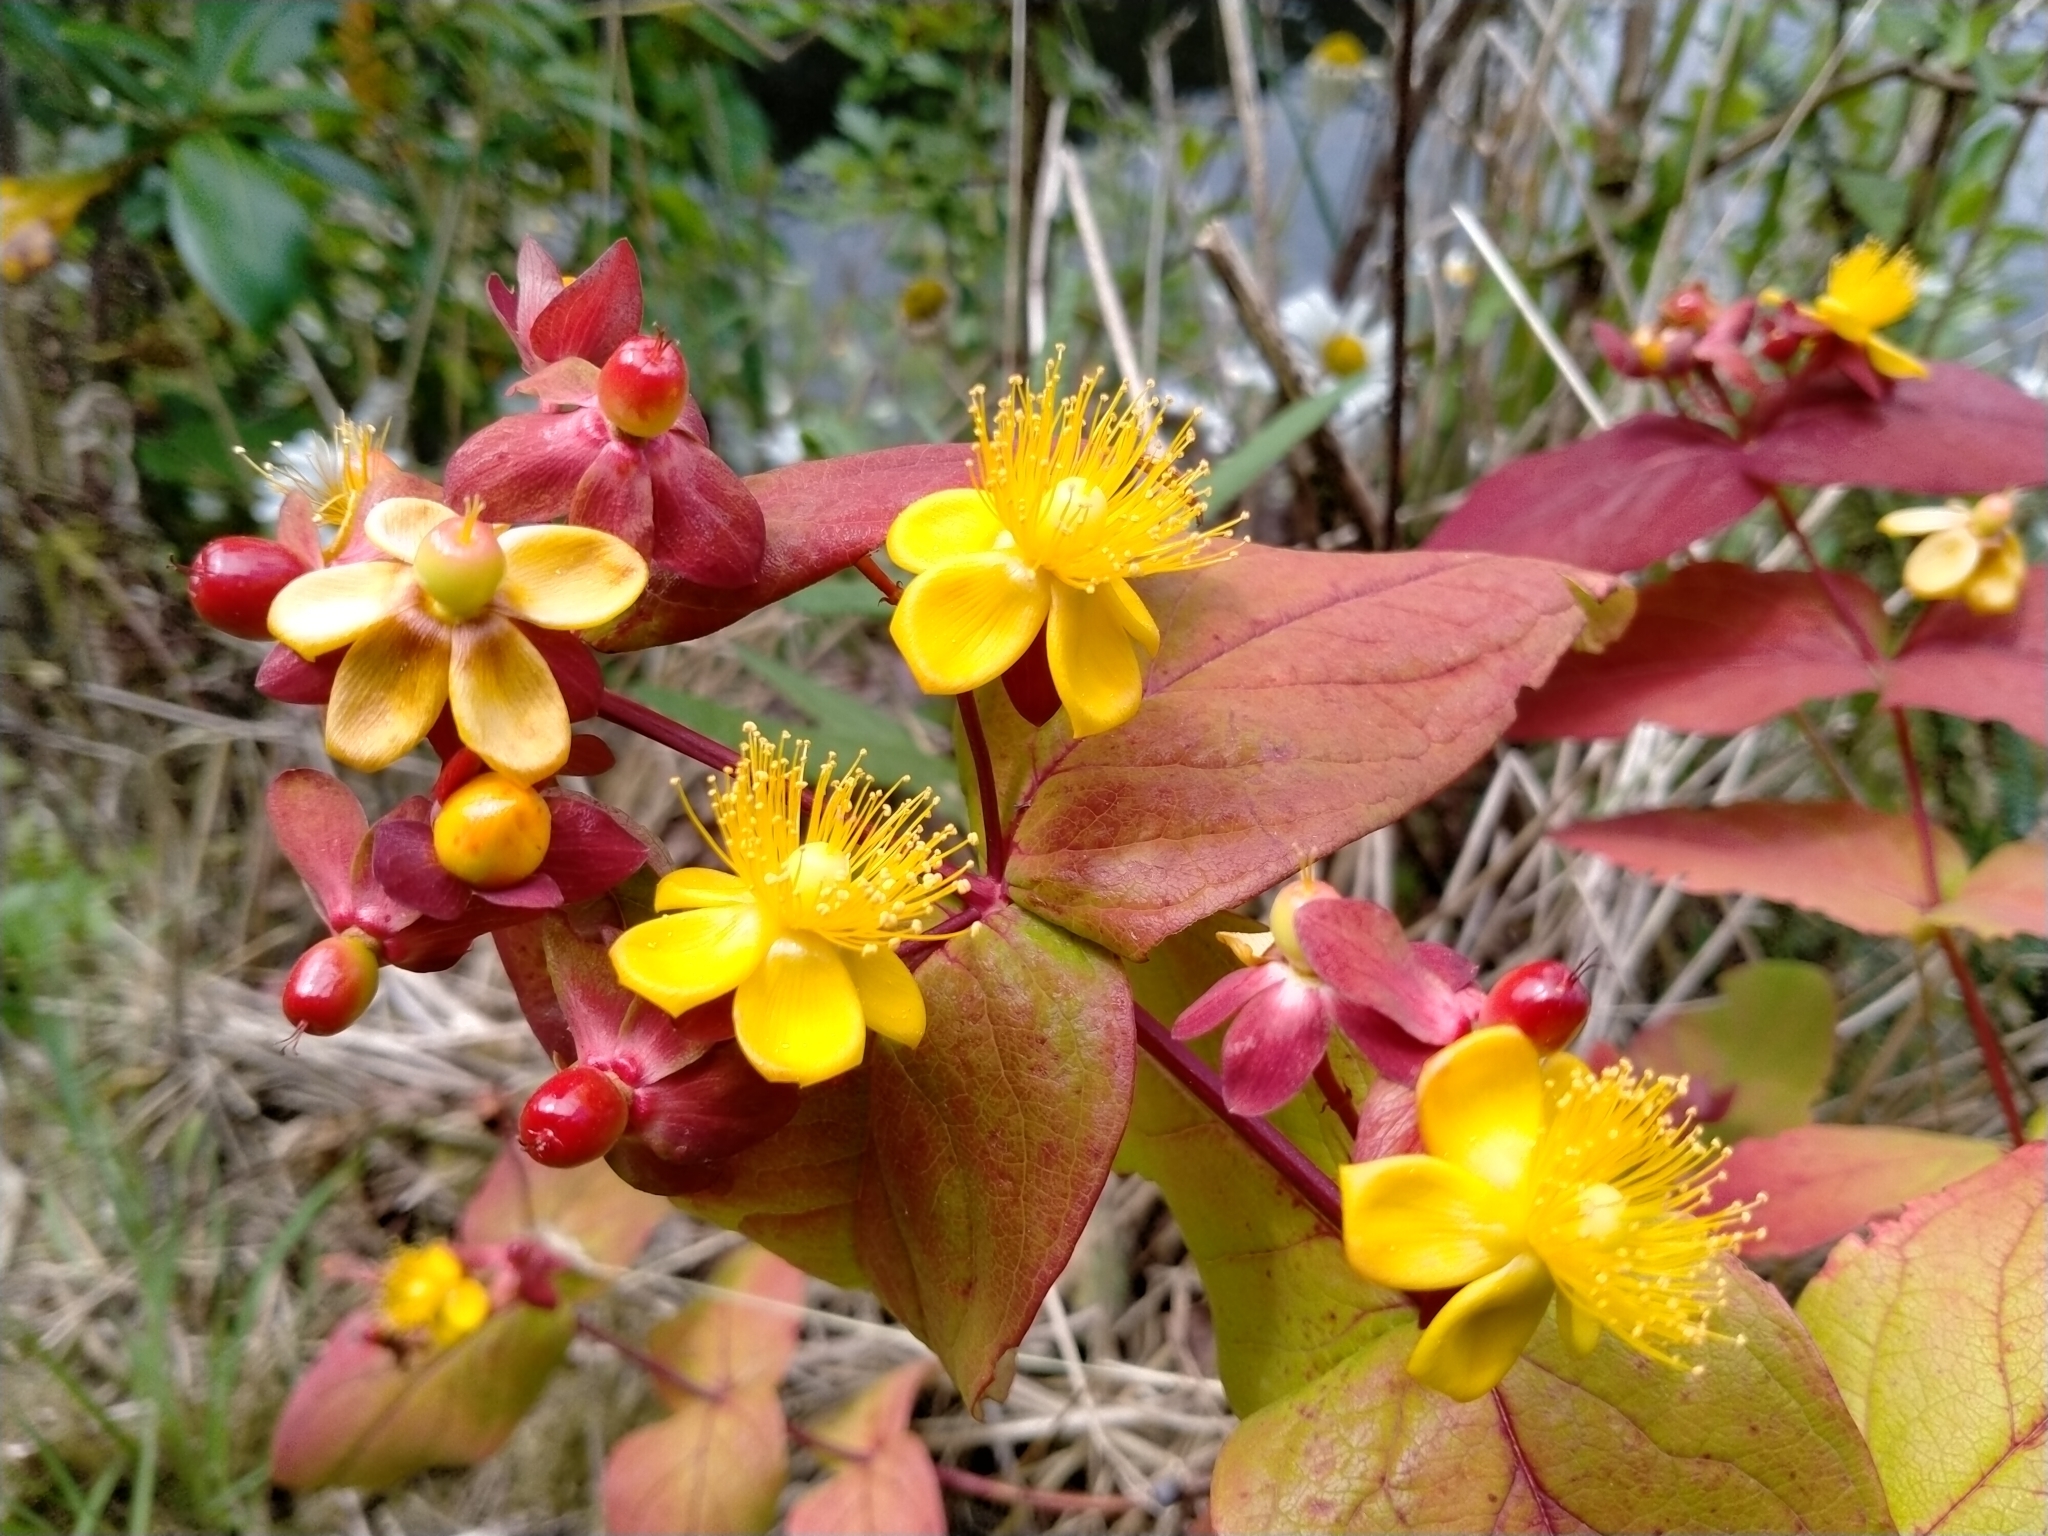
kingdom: Plantae
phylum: Tracheophyta
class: Magnoliopsida
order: Malpighiales
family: Hypericaceae
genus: Hypericum
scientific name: Hypericum androsaemum
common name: Sweet-amber
